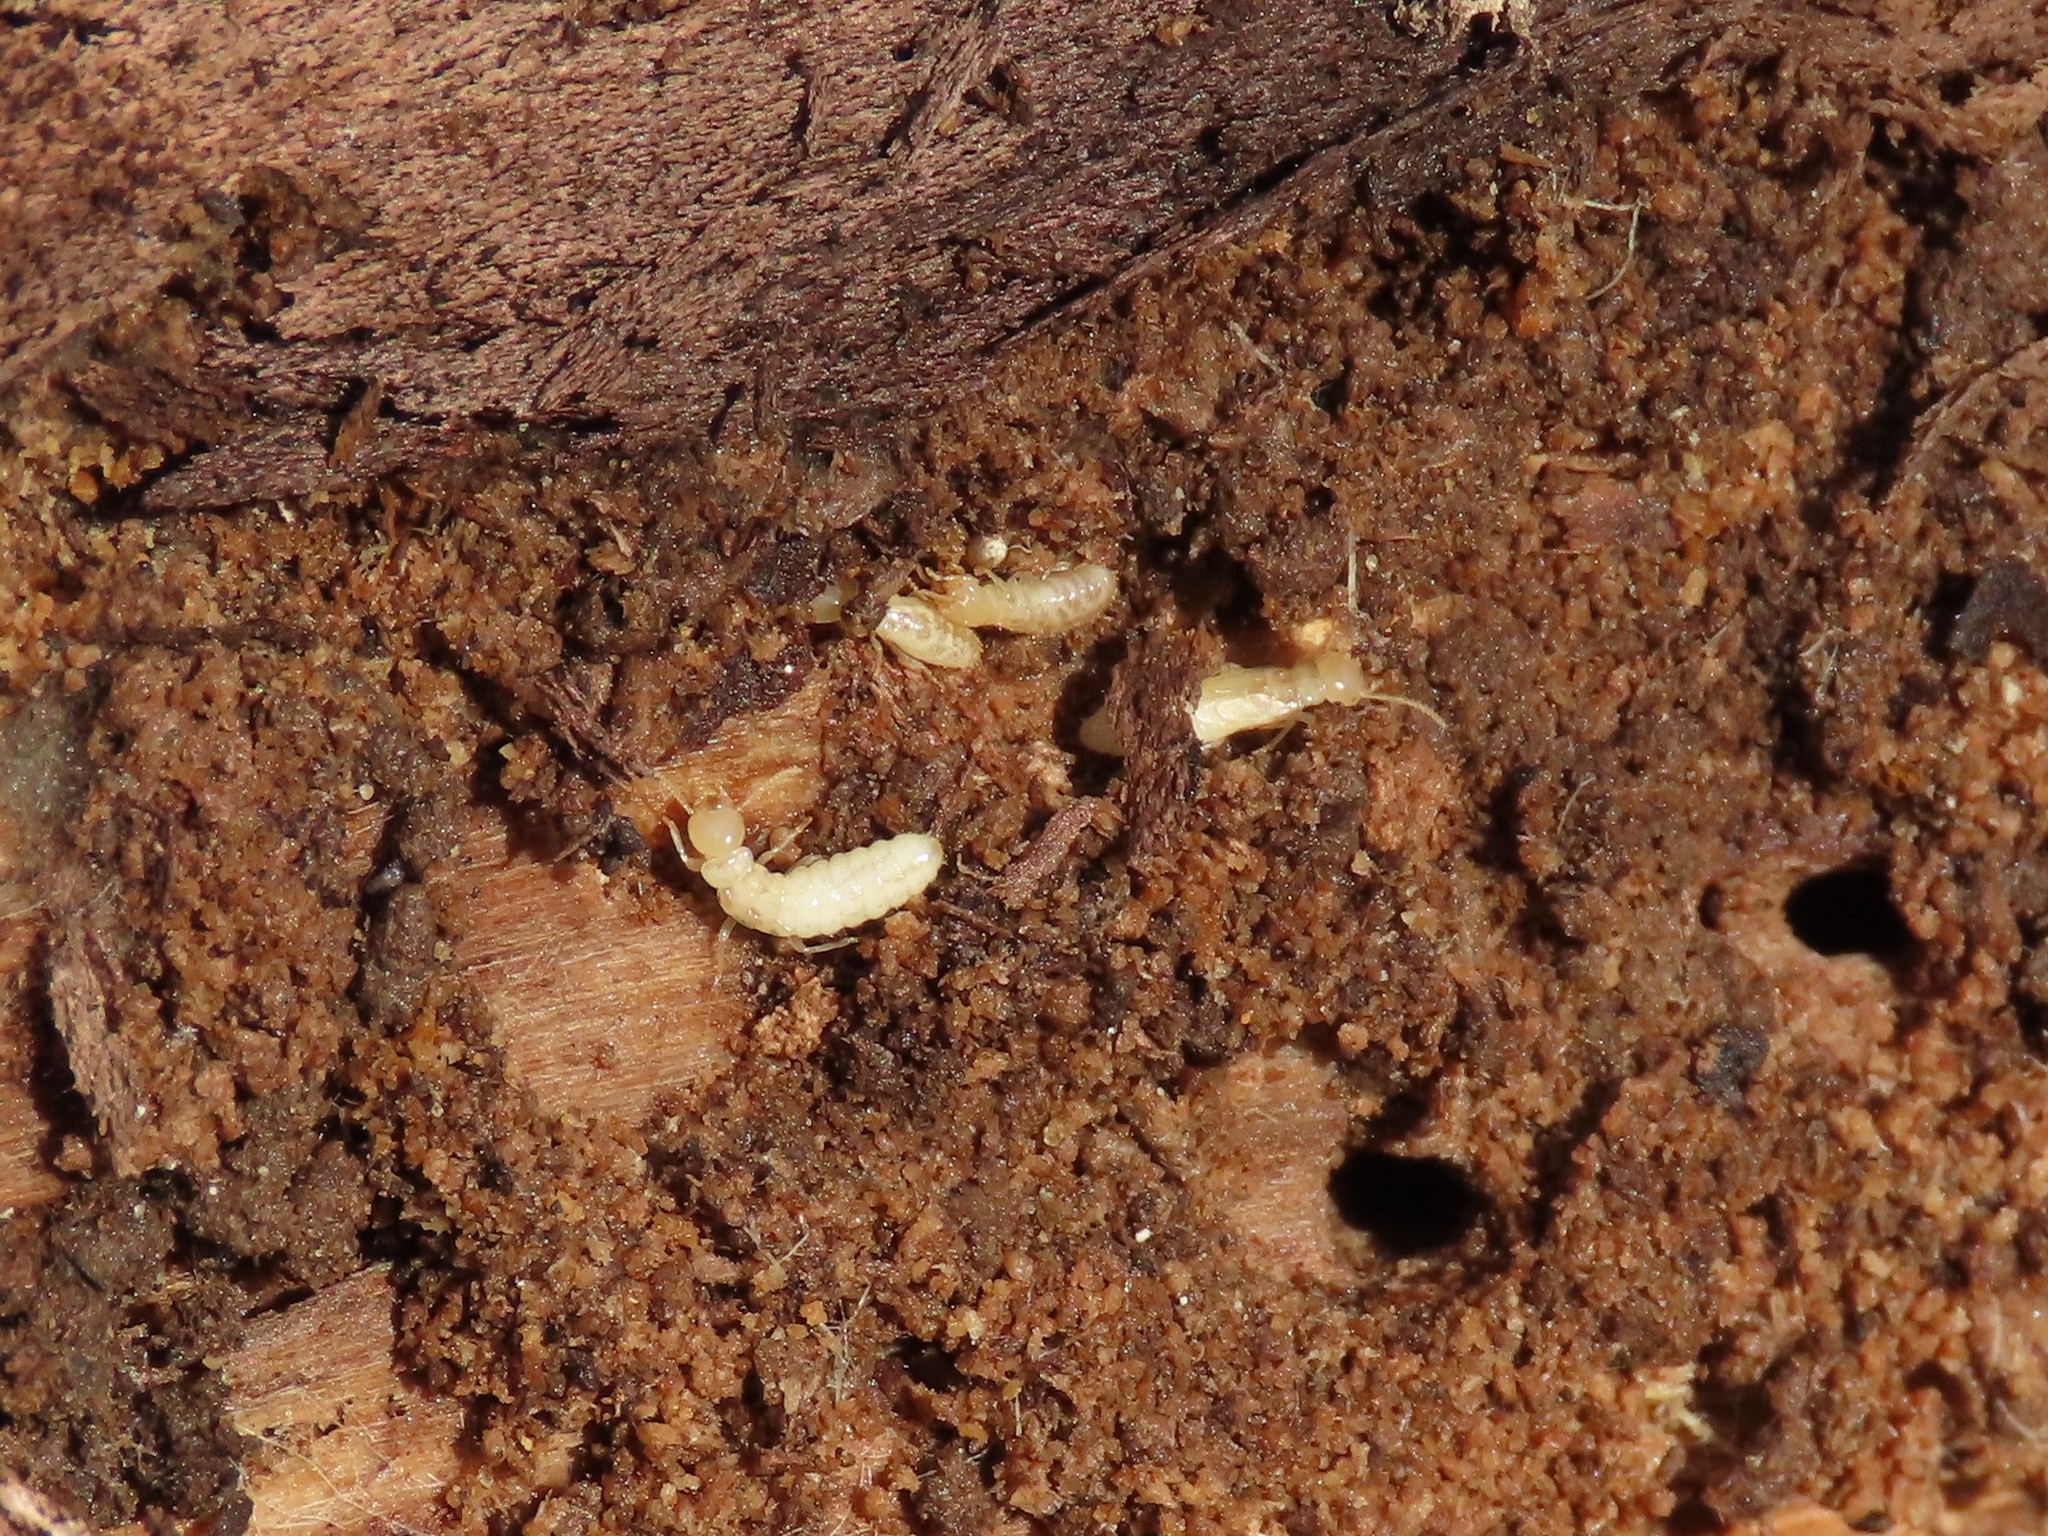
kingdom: Animalia
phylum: Arthropoda
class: Insecta
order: Blattodea
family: Rhinotermitidae
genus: Reticulitermes
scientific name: Reticulitermes flavipes
